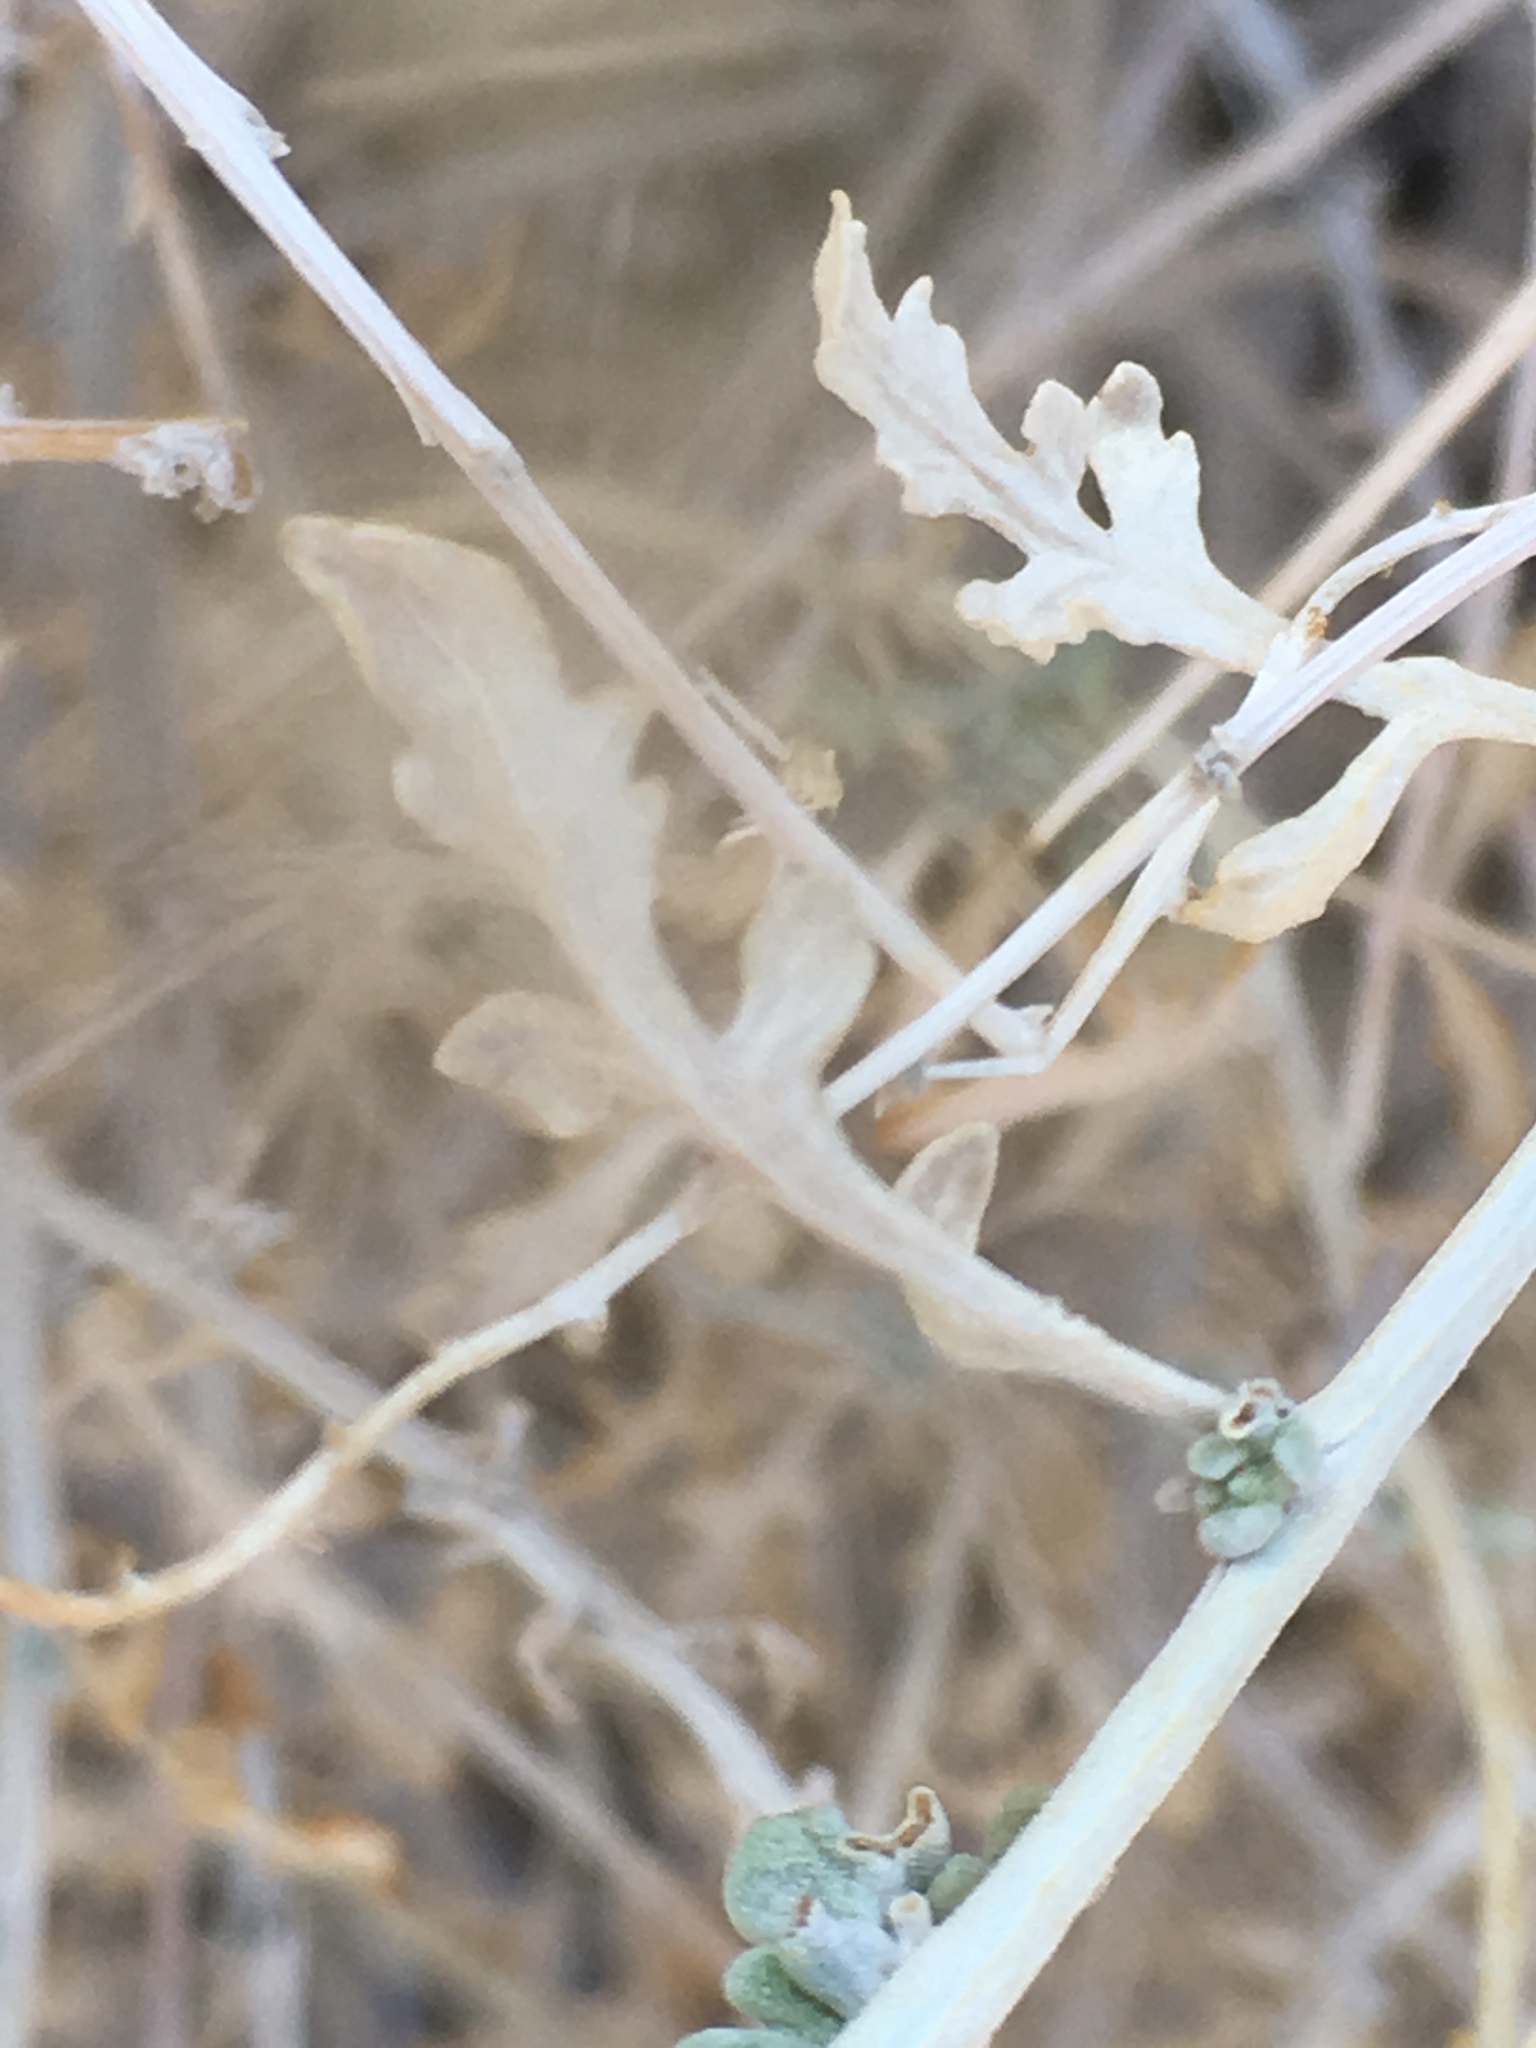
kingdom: Plantae
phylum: Tracheophyta
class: Magnoliopsida
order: Asterales
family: Asteraceae
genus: Ambrosia
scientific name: Ambrosia dumosa
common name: Bur-sage
